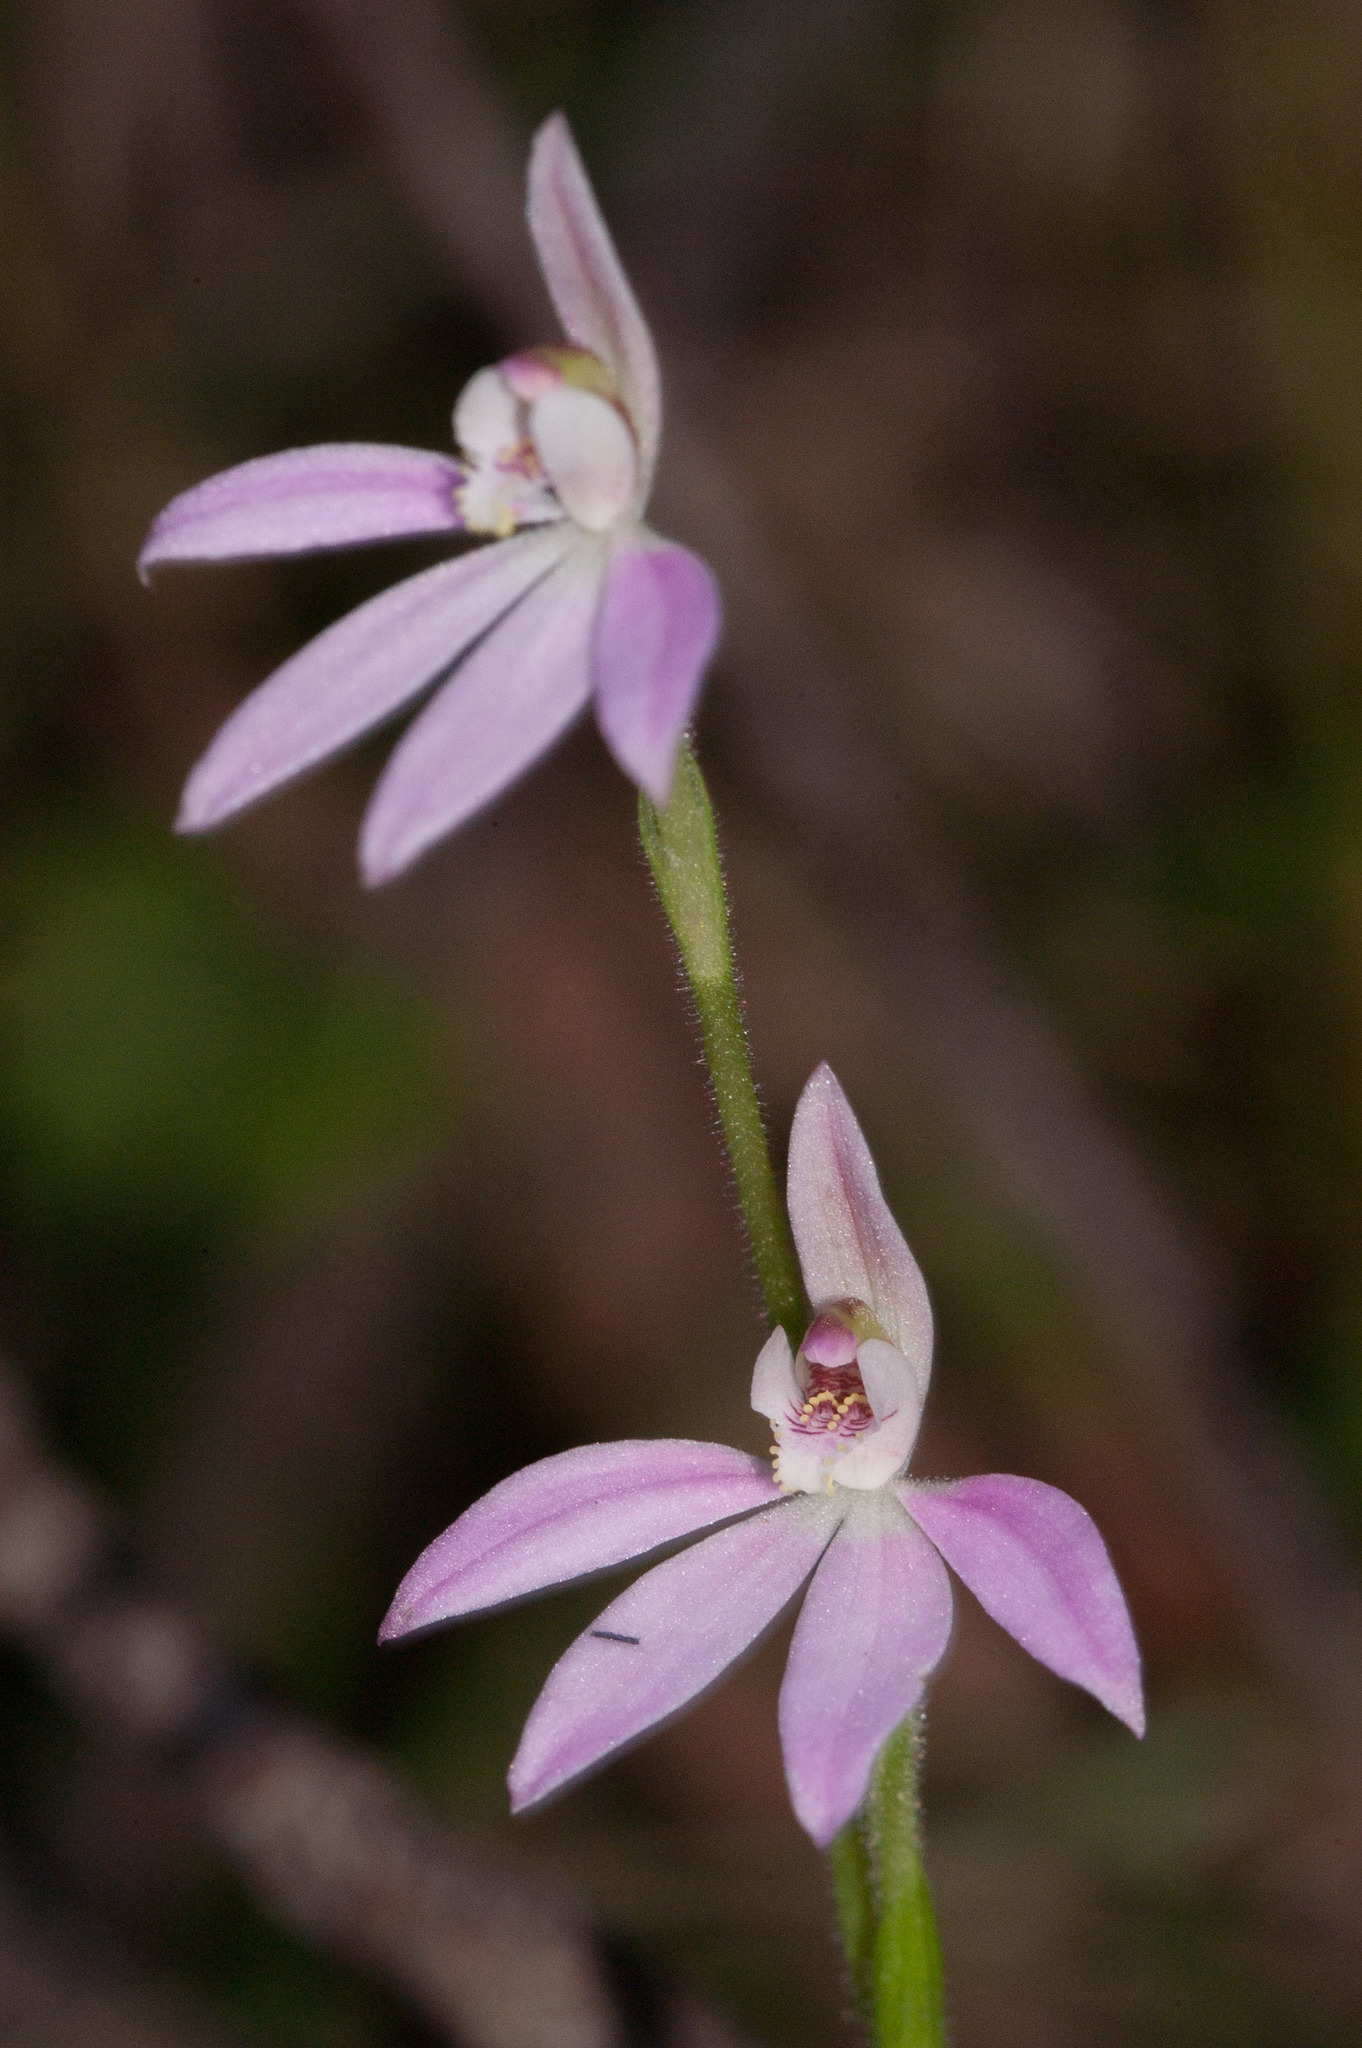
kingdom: Plantae
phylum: Tracheophyta
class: Liliopsida
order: Asparagales
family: Orchidaceae
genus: Caladenia
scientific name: Caladenia carnea
